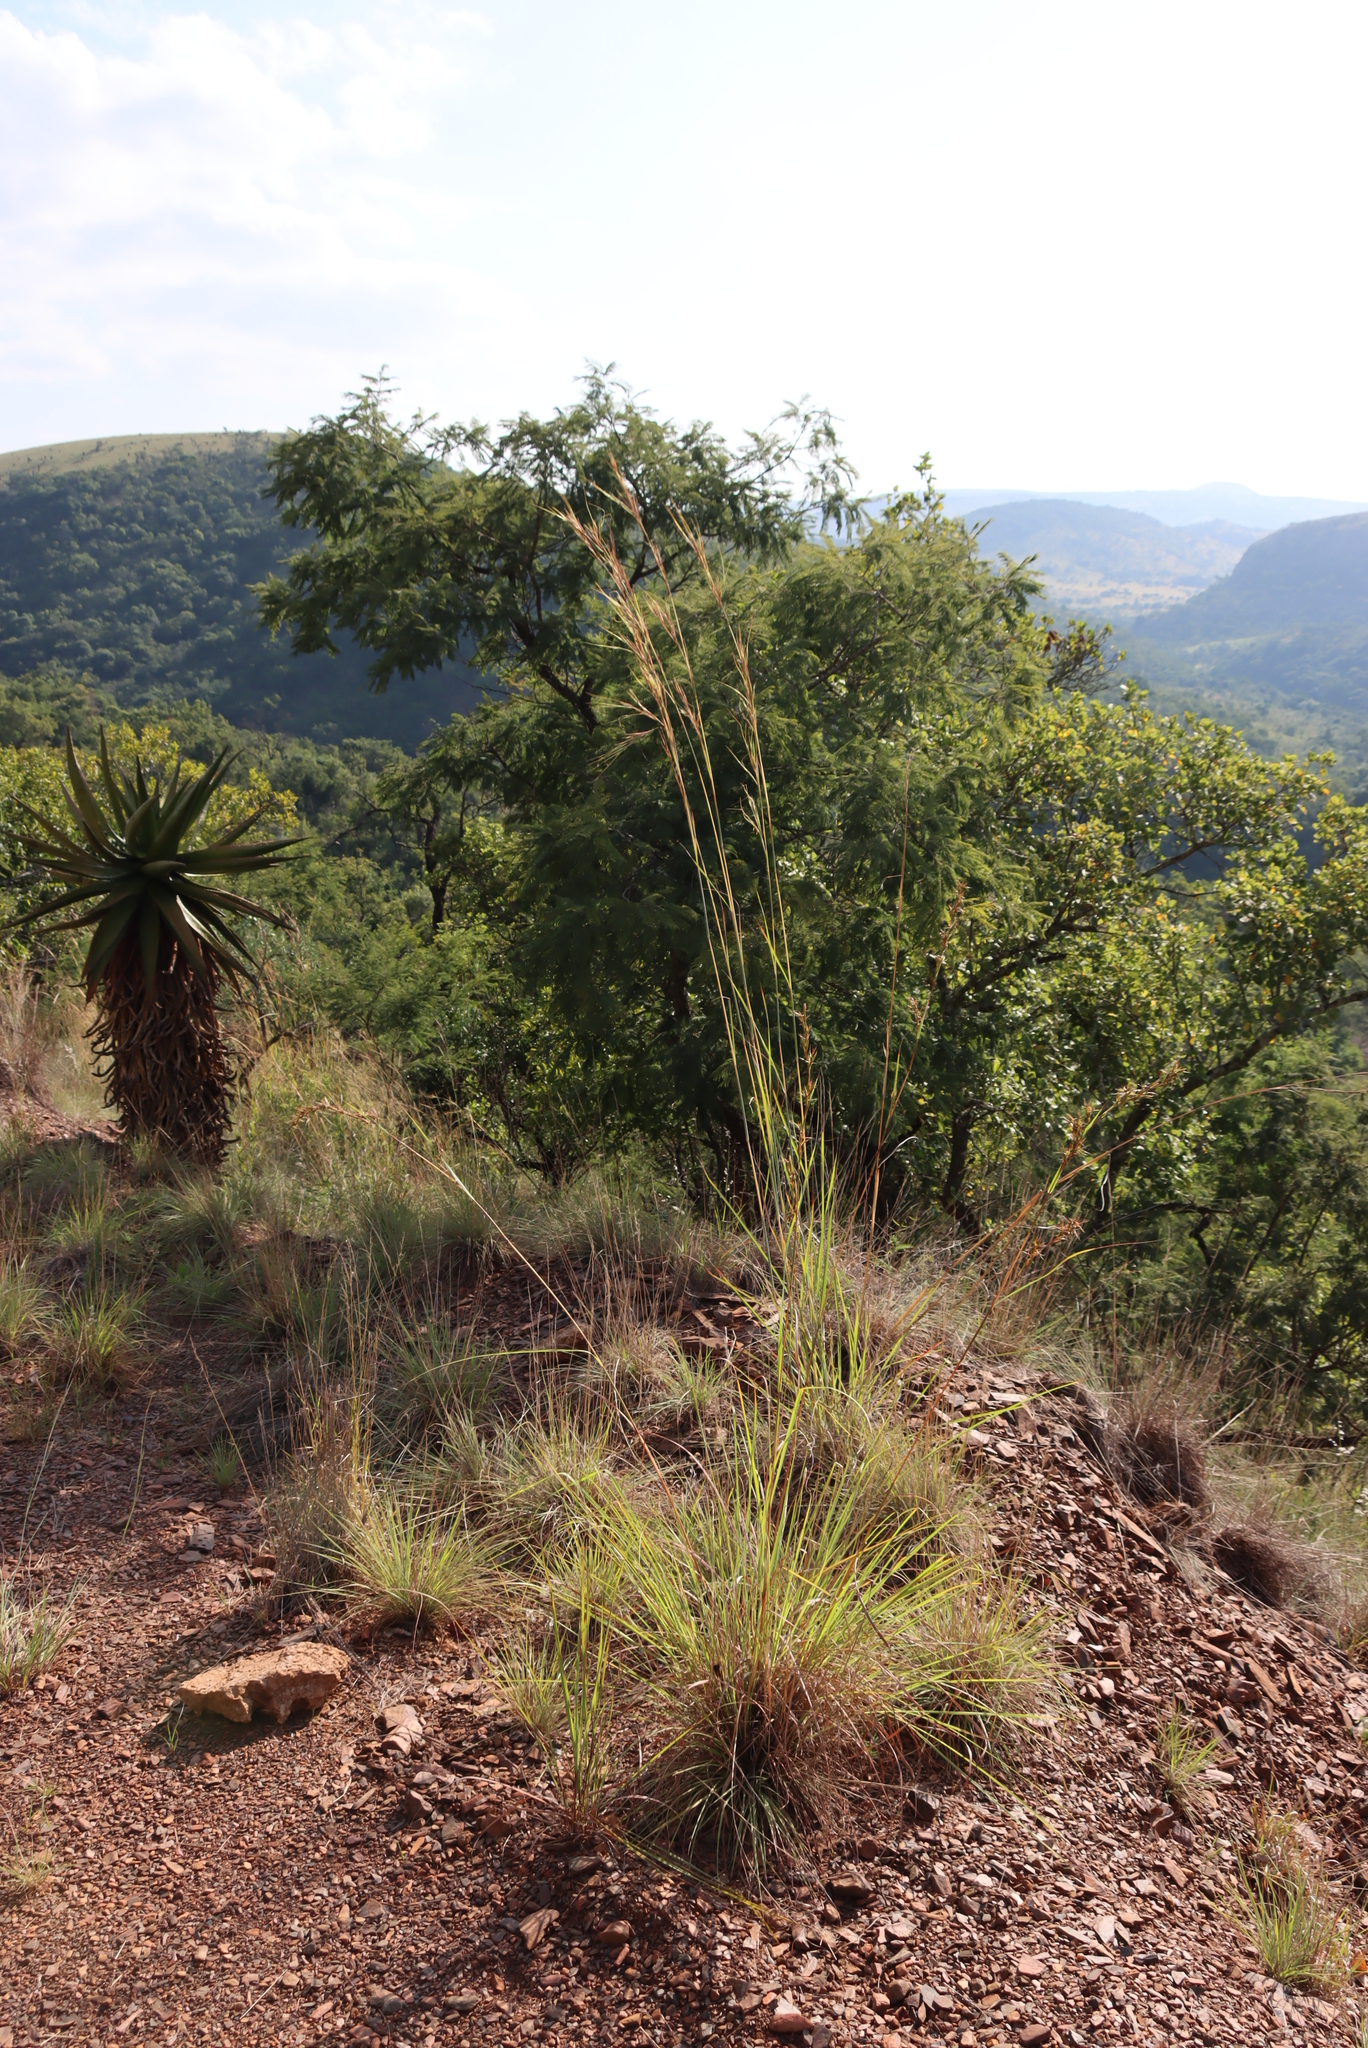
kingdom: Plantae
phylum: Tracheophyta
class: Liliopsida
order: Poales
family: Poaceae
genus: Hyperthelia
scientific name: Hyperthelia dissoluta
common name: Yellow thatching grass
